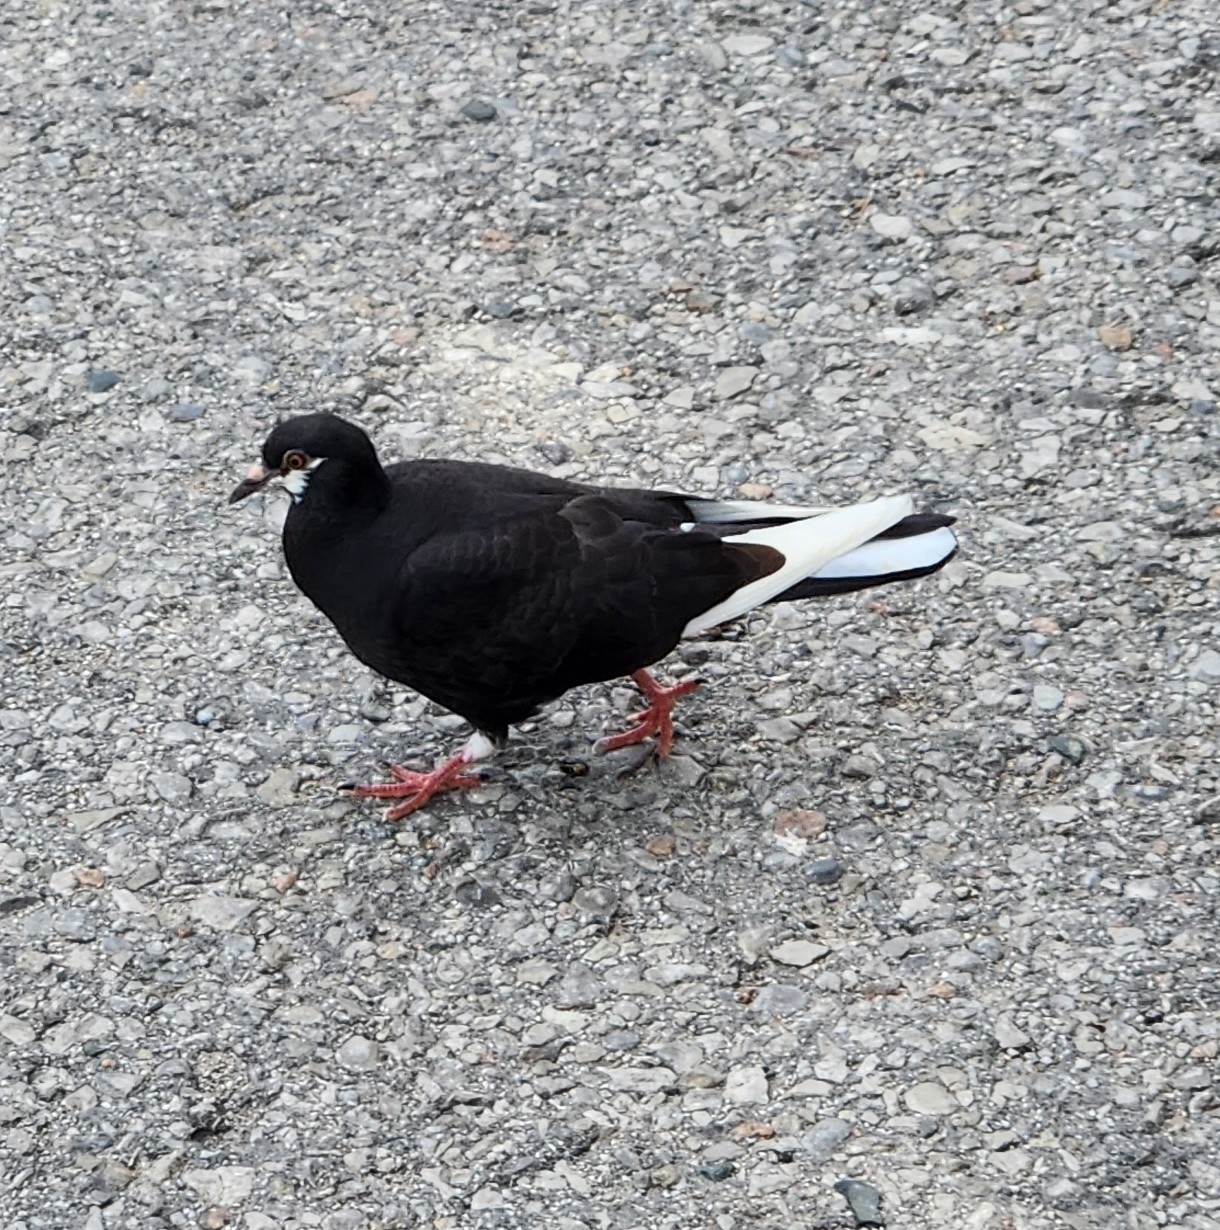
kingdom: Animalia
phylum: Chordata
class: Aves
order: Columbiformes
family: Columbidae
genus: Columba
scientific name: Columba livia
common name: Rock pigeon
